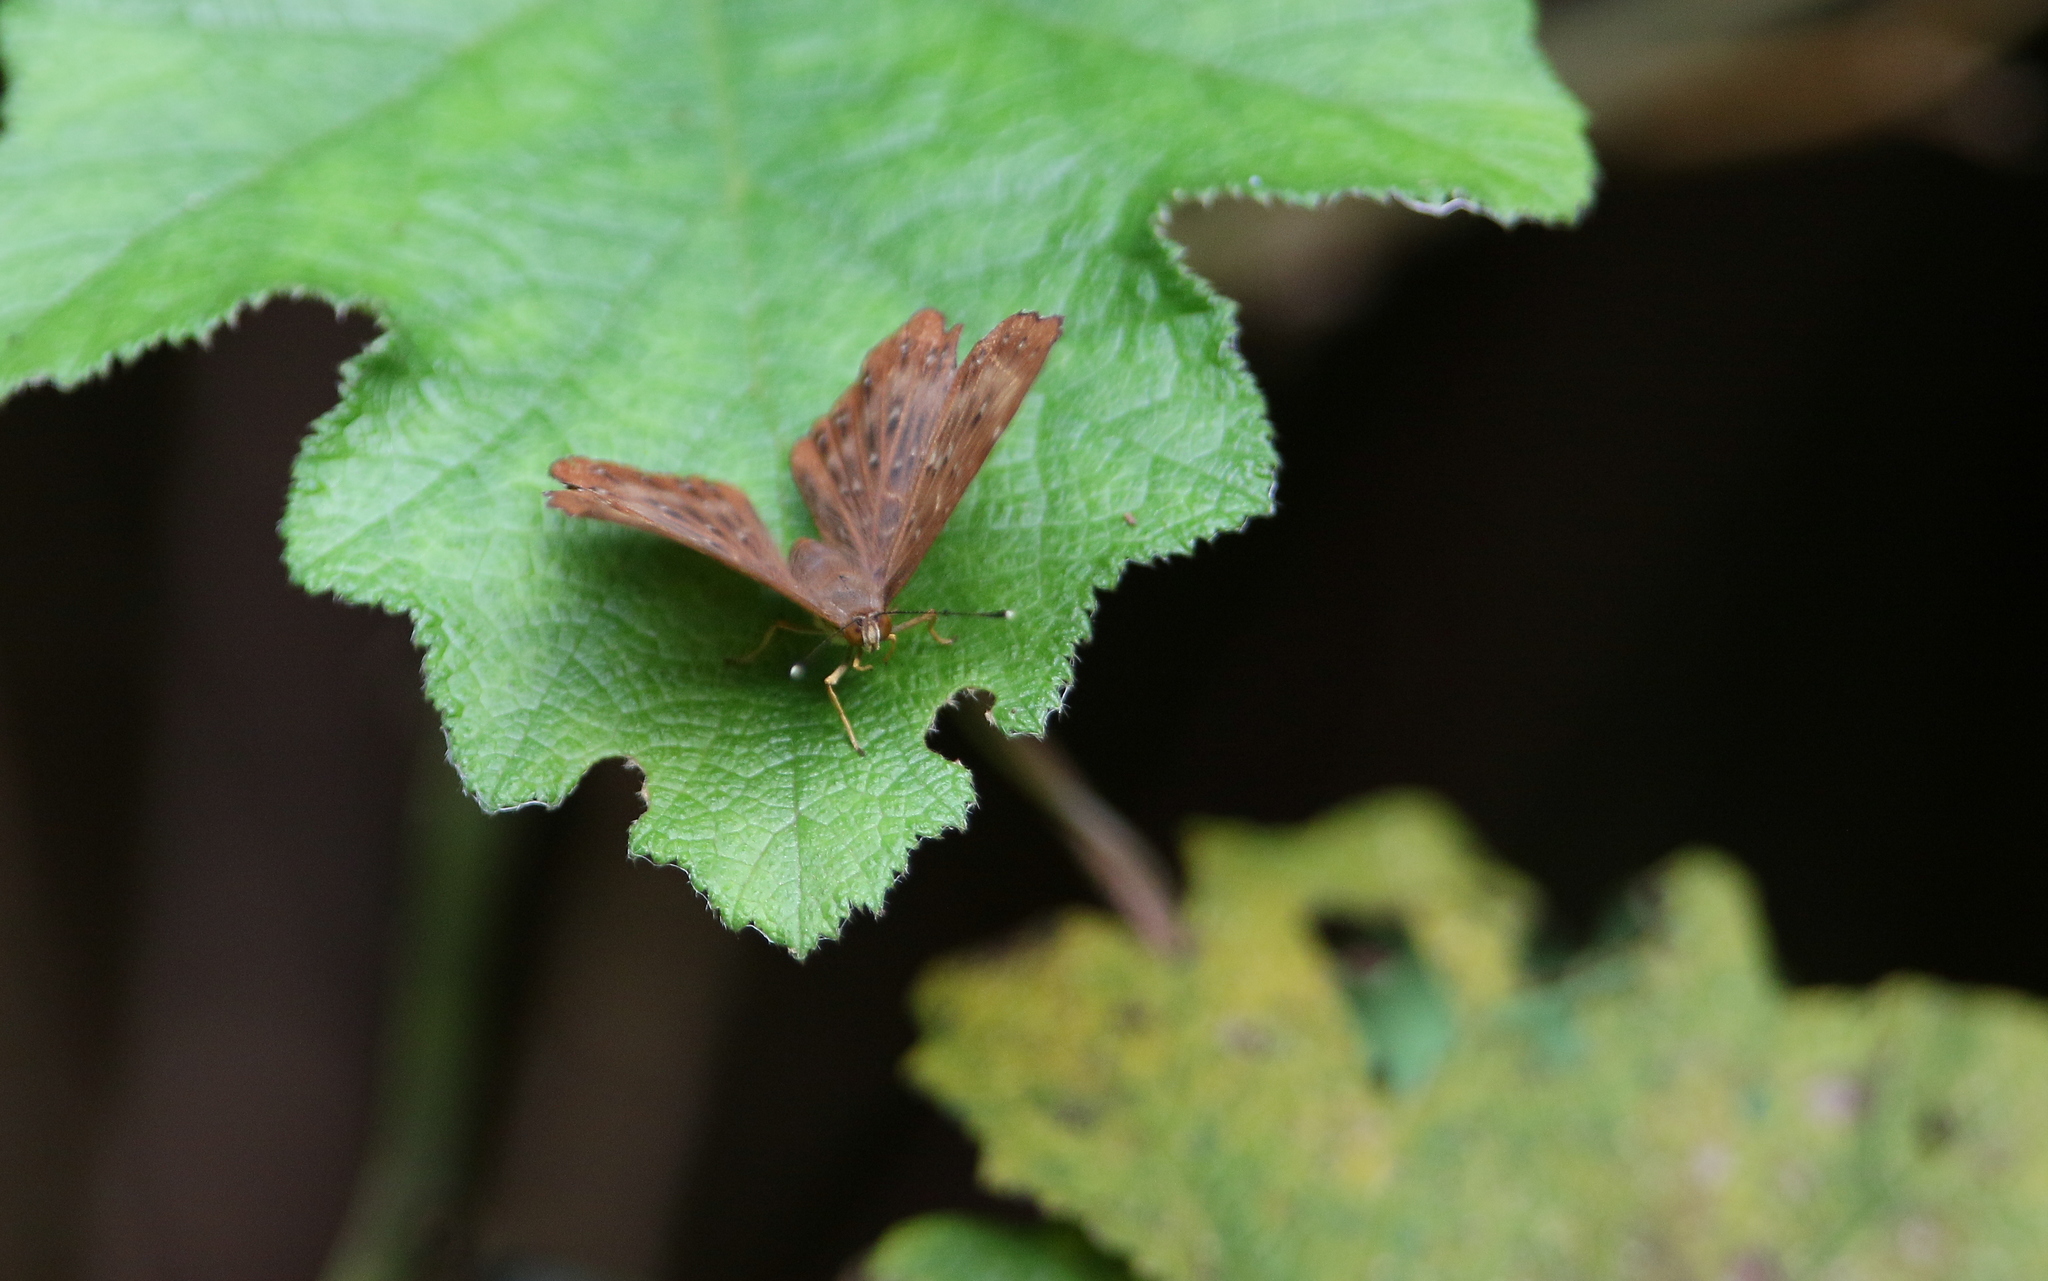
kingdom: Animalia
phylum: Arthropoda
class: Insecta
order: Lepidoptera
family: Riodinidae
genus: Zemeros
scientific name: Zemeros flegyas
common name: Punchinello
